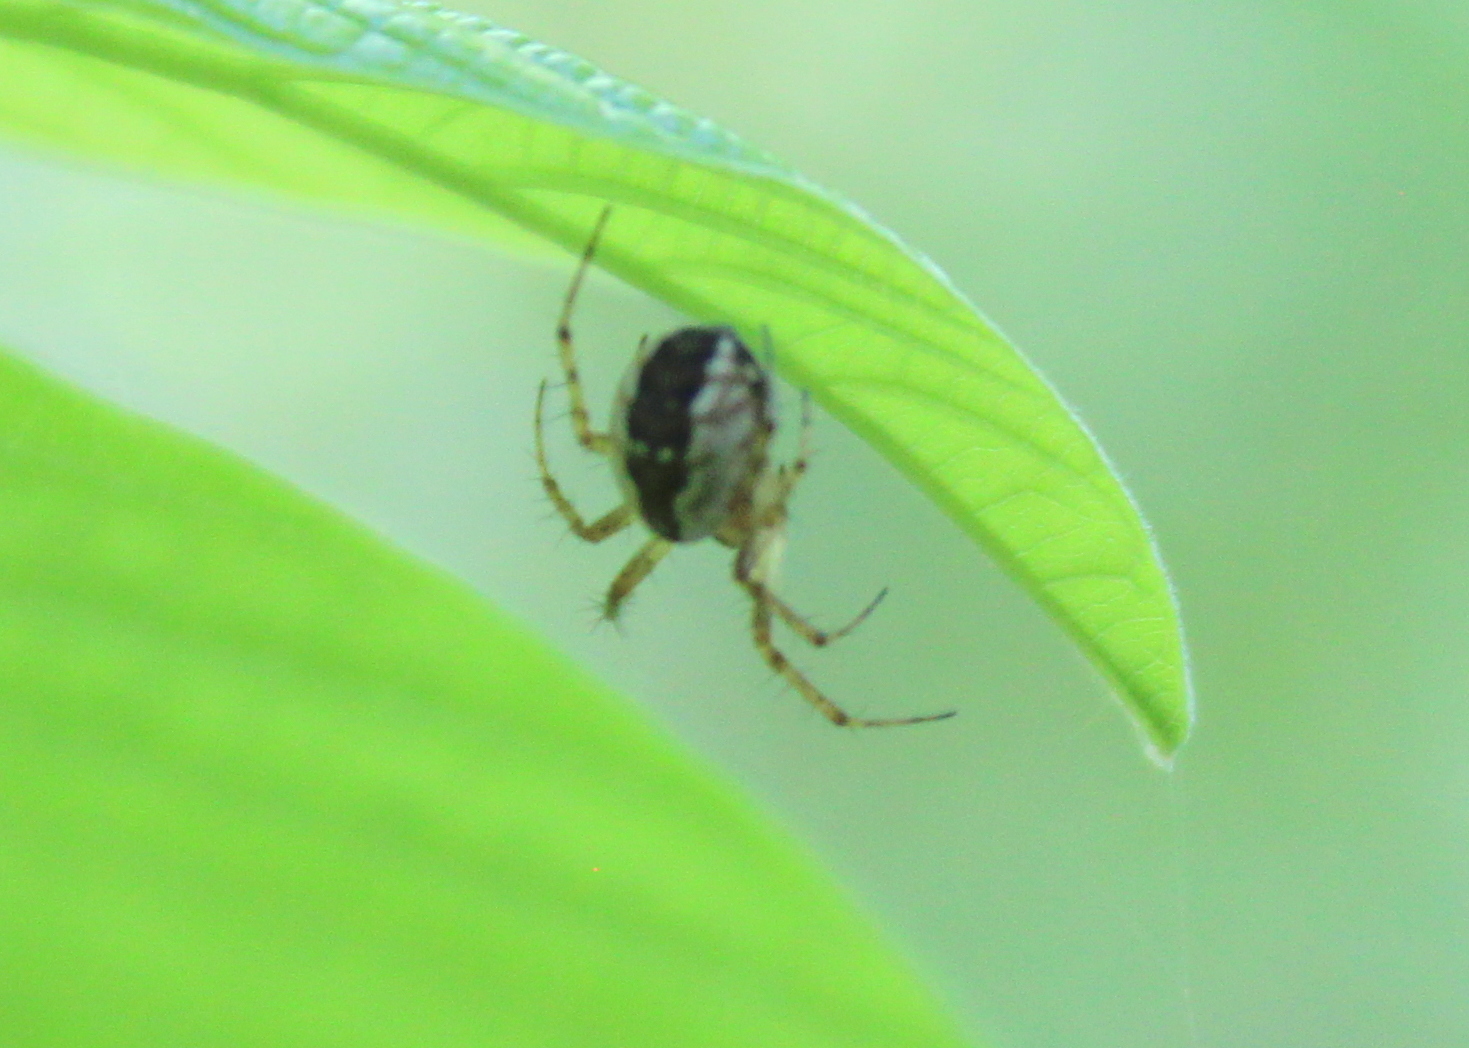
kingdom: Animalia
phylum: Arthropoda
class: Arachnida
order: Araneae
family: Araneidae
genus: Mangora
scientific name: Mangora placida
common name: Tuft-legged orbweaver
